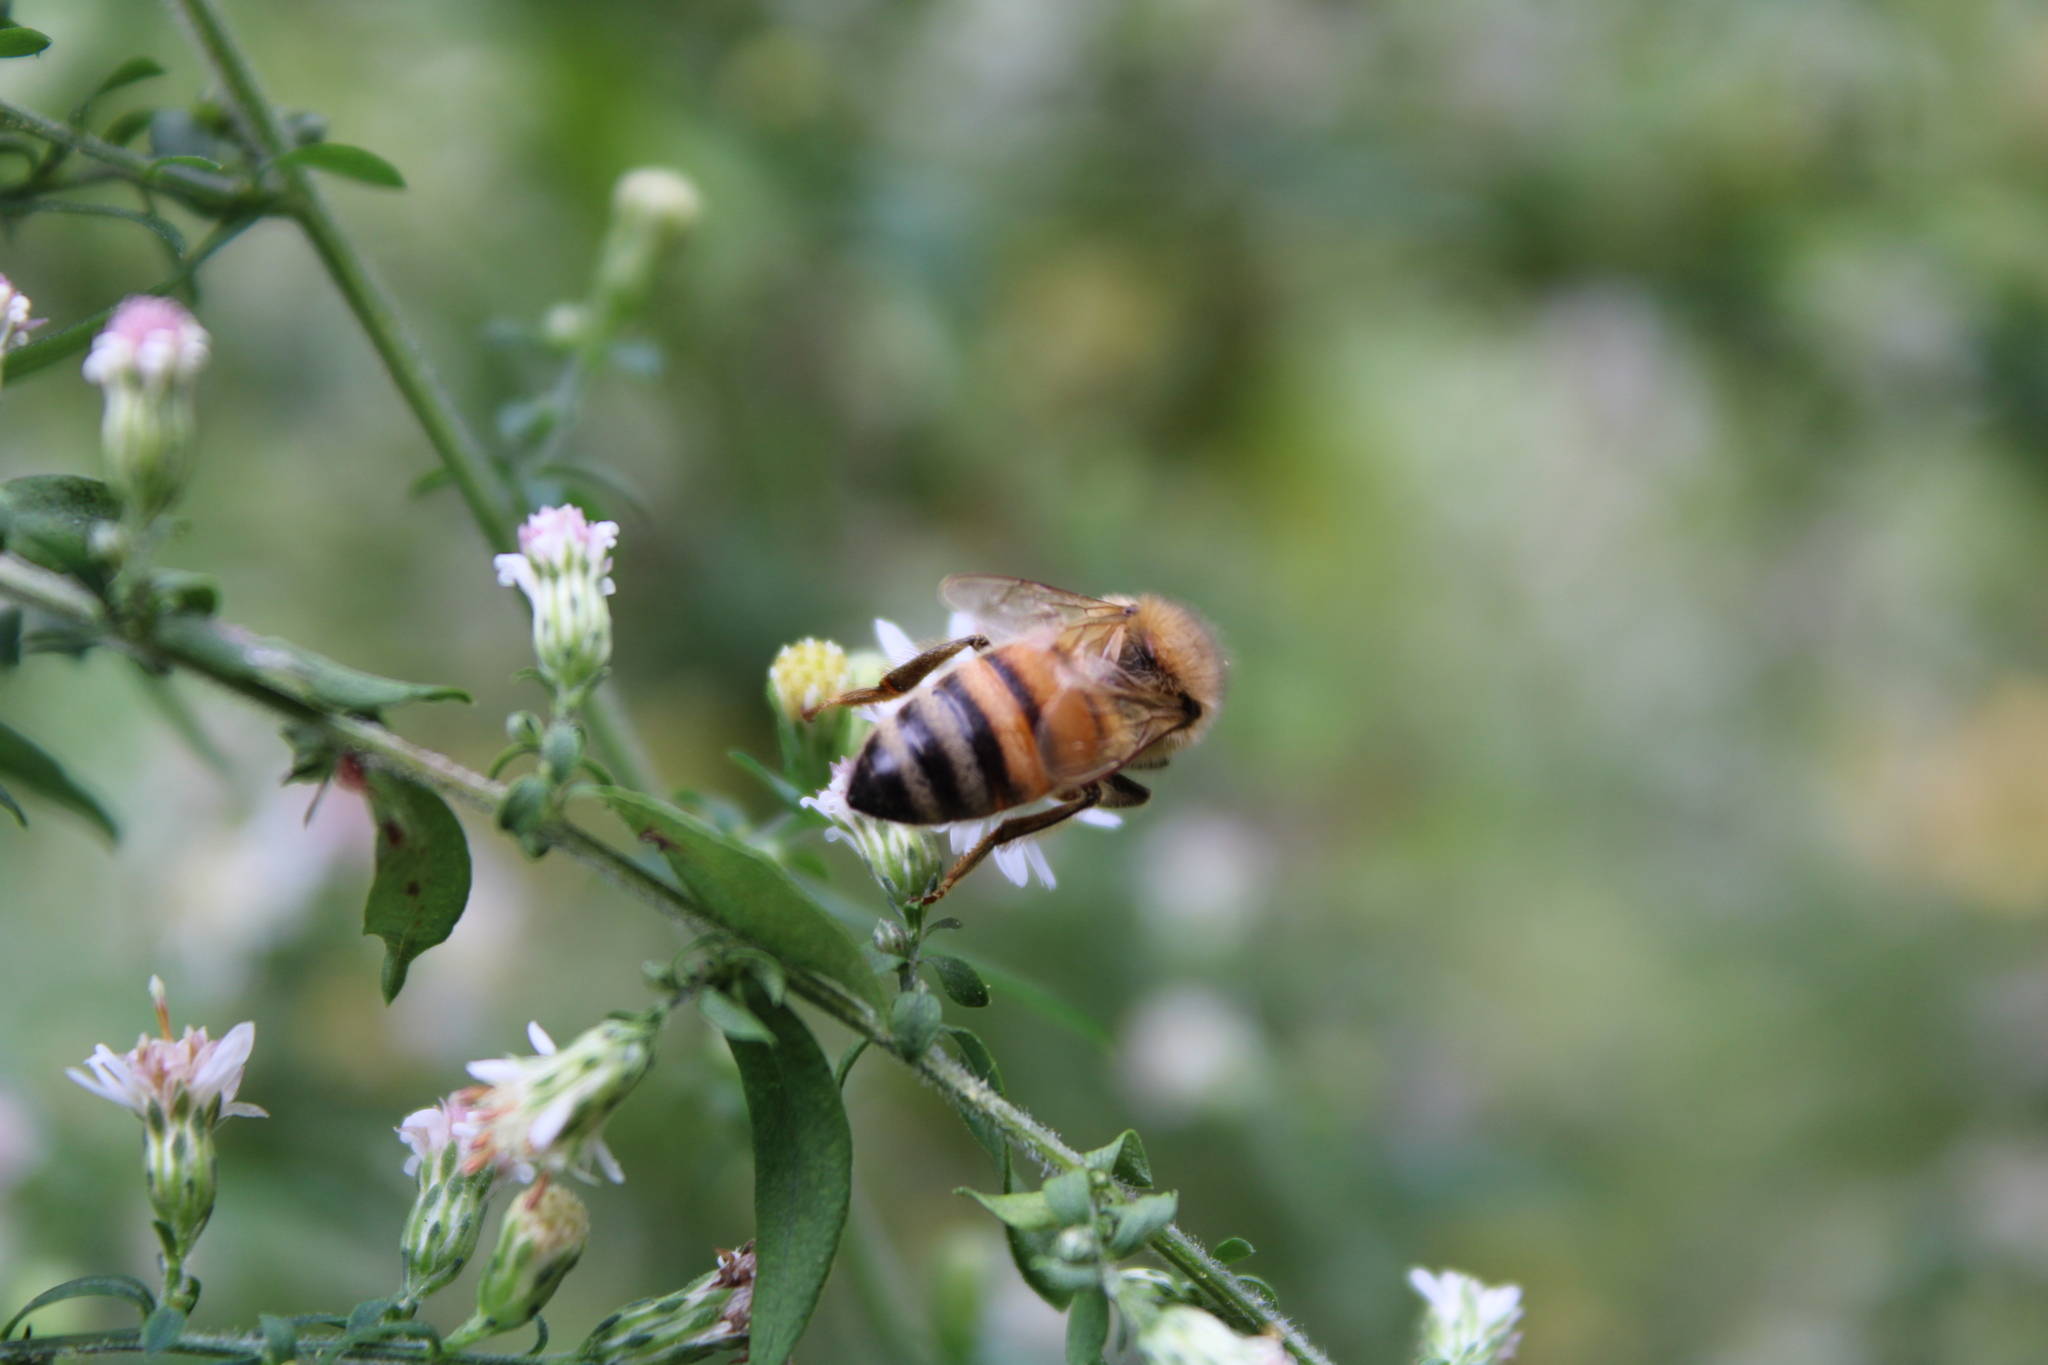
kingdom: Animalia
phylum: Arthropoda
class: Insecta
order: Hymenoptera
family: Apidae
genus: Apis
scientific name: Apis mellifera
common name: Honey bee
